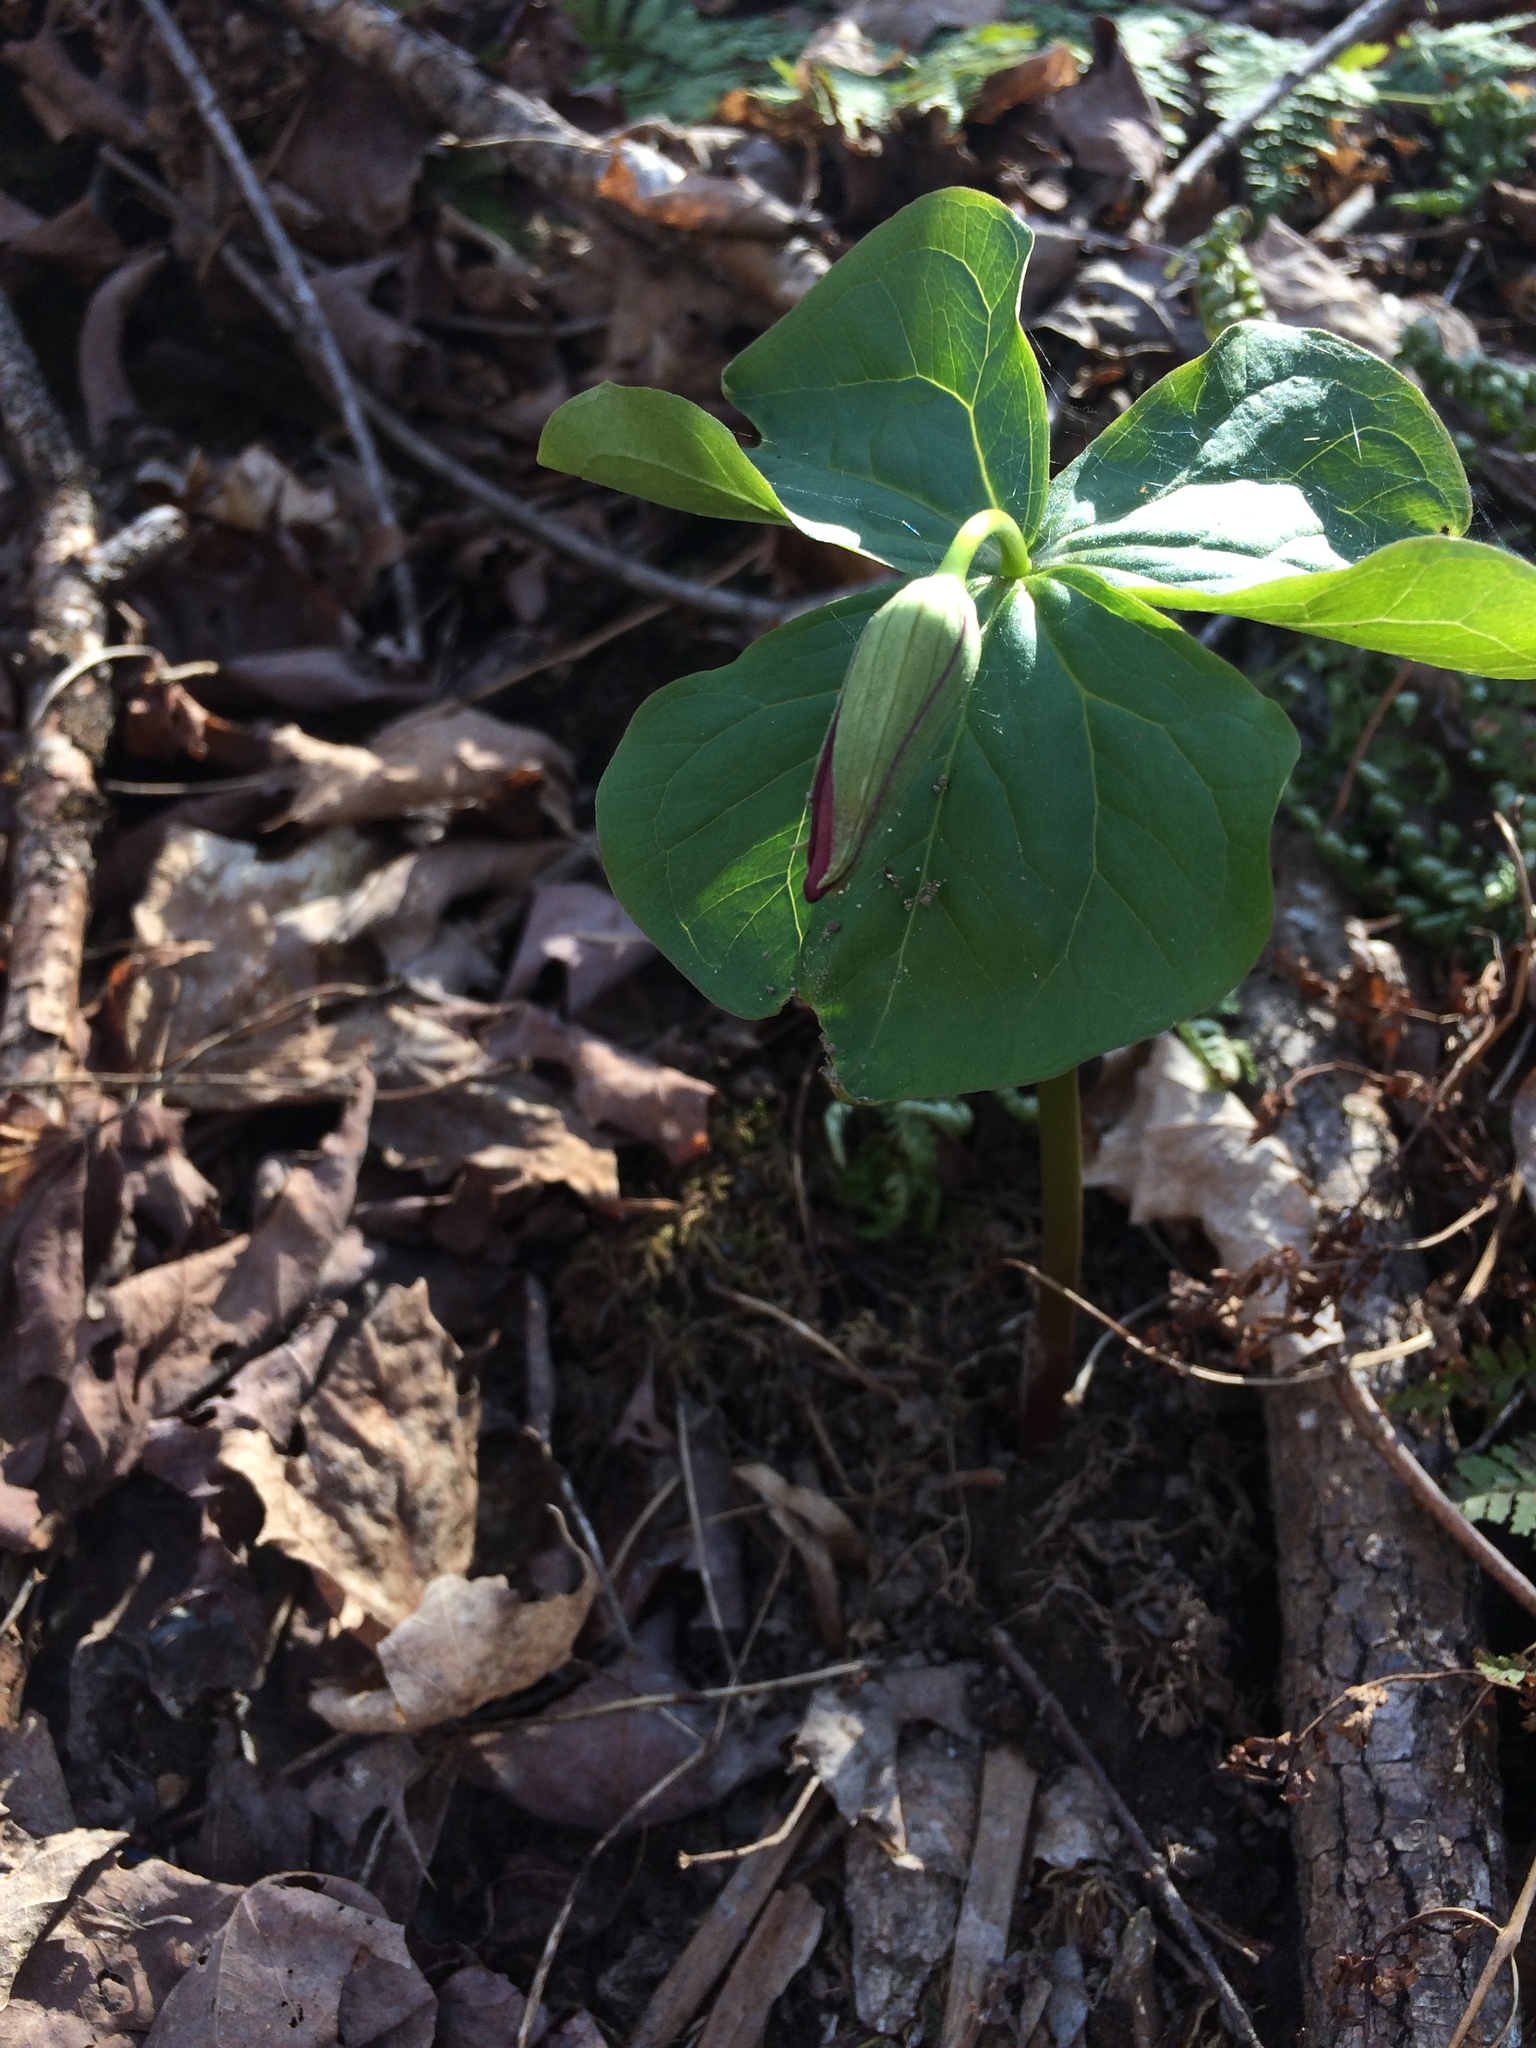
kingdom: Plantae
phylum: Tracheophyta
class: Liliopsida
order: Liliales
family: Melanthiaceae
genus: Trillium
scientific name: Trillium erectum
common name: Purple trillium
